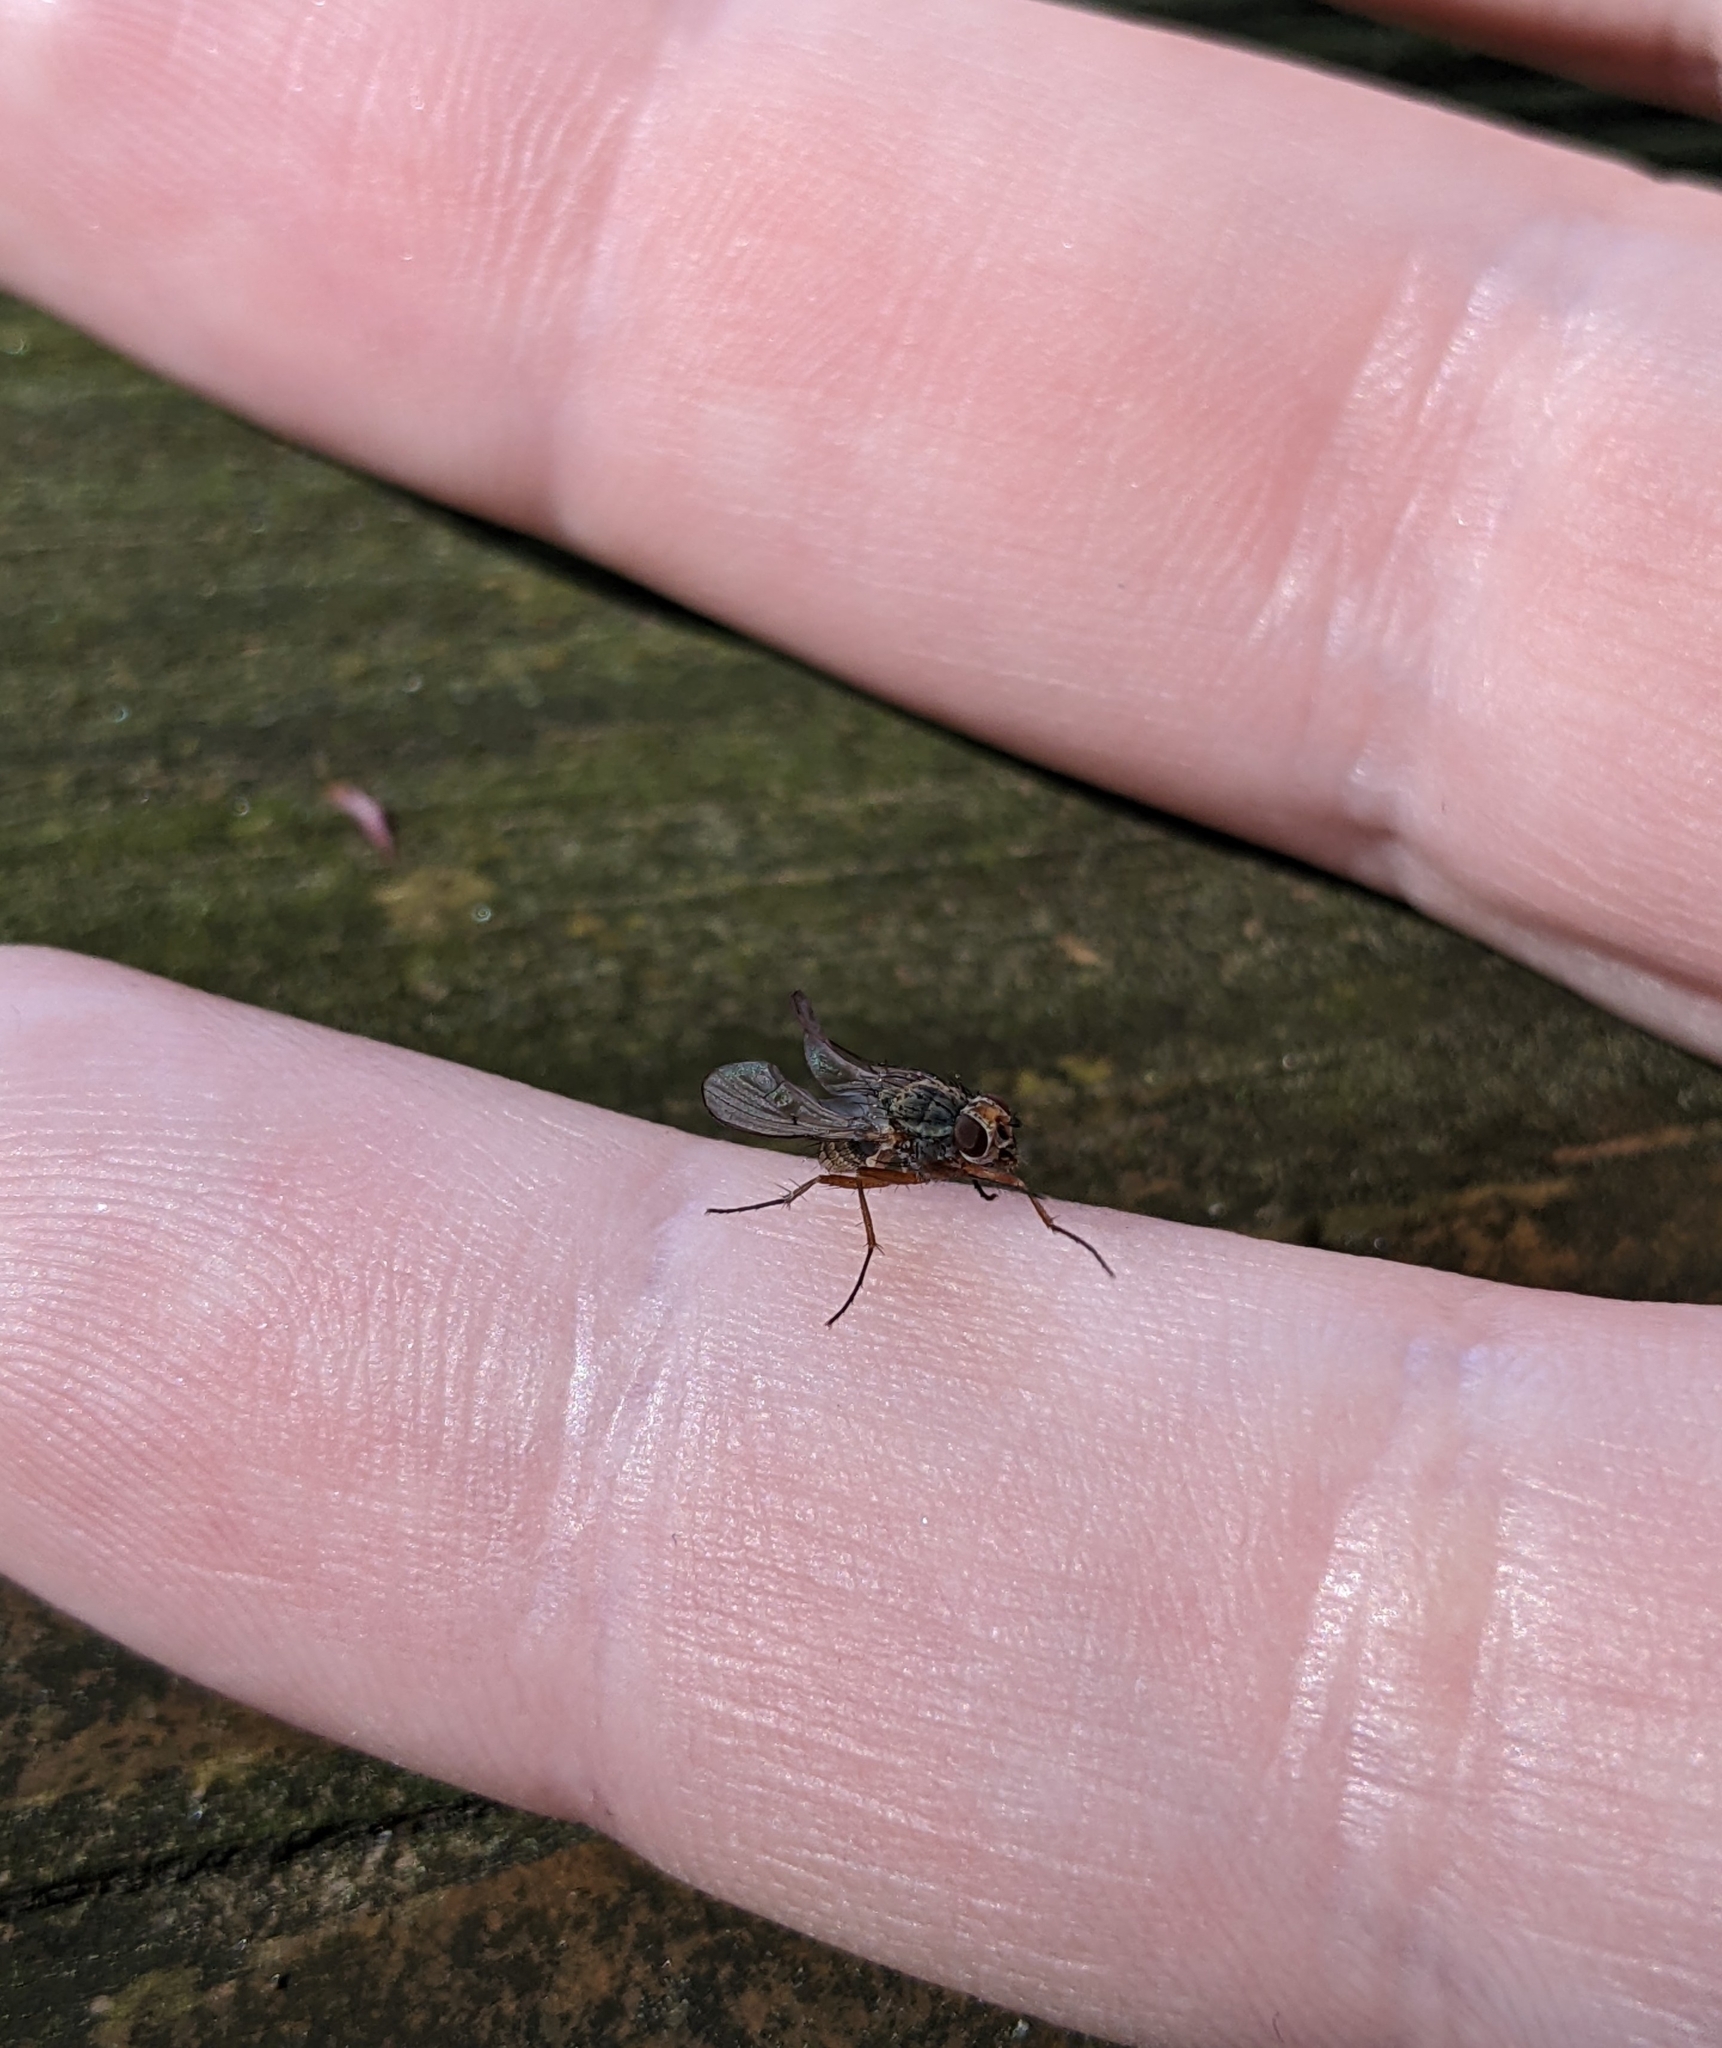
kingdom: Animalia
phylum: Arthropoda
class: Insecta
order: Diptera
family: Scathophagidae
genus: Scathophaga
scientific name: Scathophaga furcata
